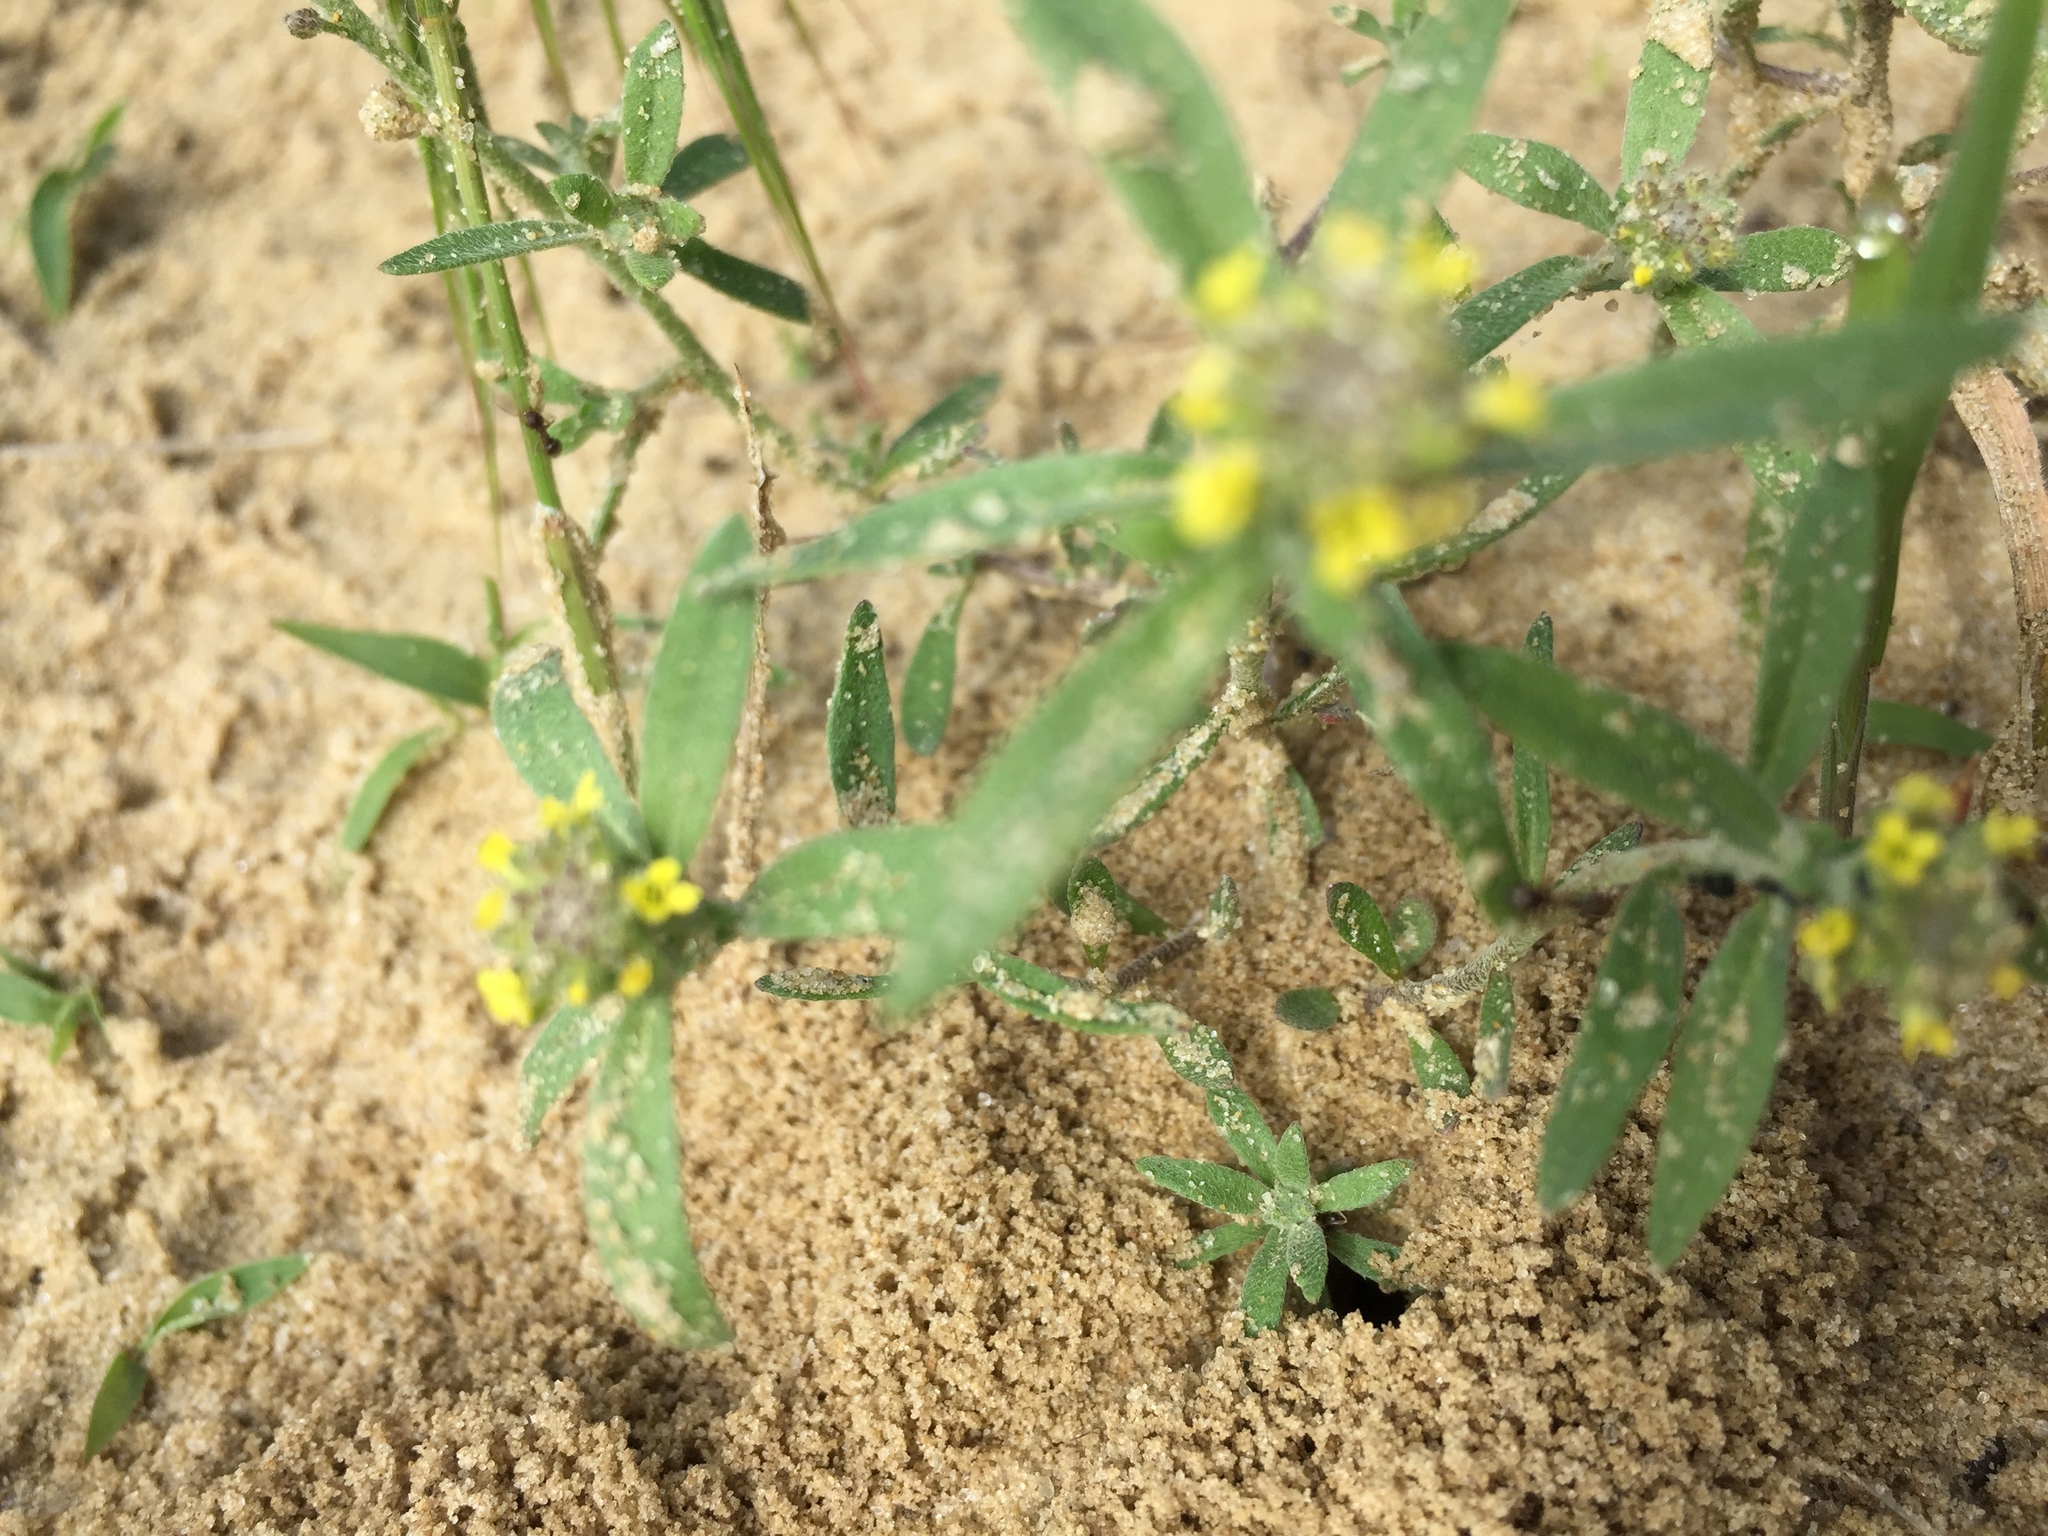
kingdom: Plantae
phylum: Tracheophyta
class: Magnoliopsida
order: Brassicales
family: Brassicaceae
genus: Alyssum
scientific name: Alyssum turkestanicum
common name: Desert alyssum
